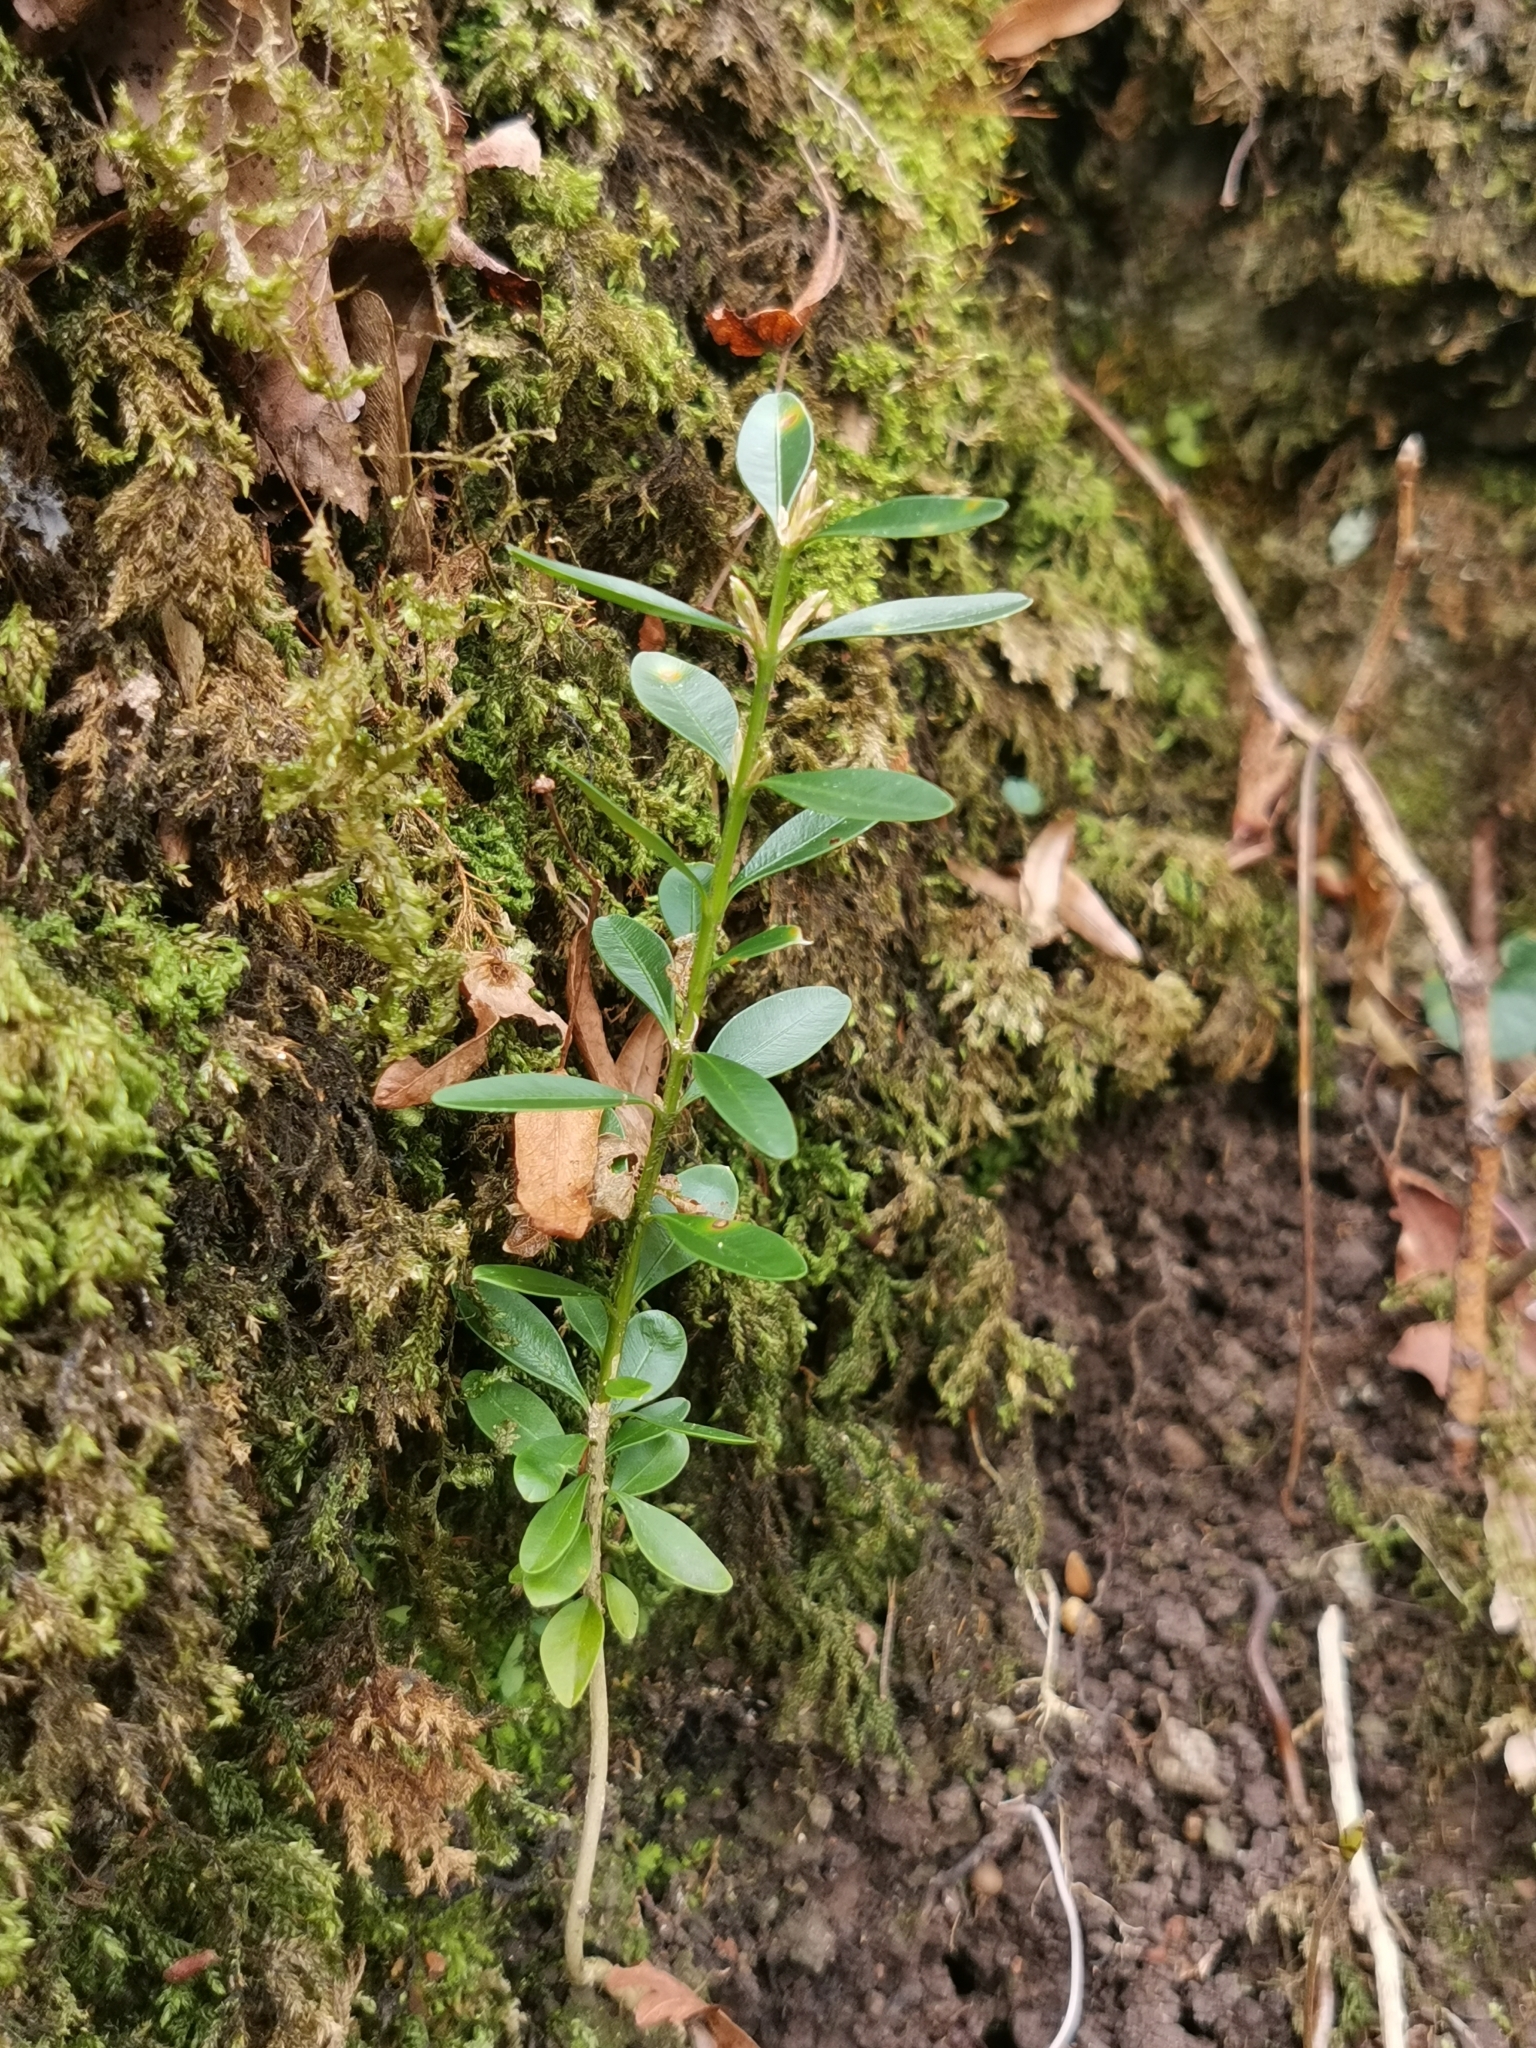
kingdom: Plantae
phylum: Tracheophyta
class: Magnoliopsida
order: Buxales
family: Buxaceae
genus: Buxus
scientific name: Buxus sempervirens
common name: Box
